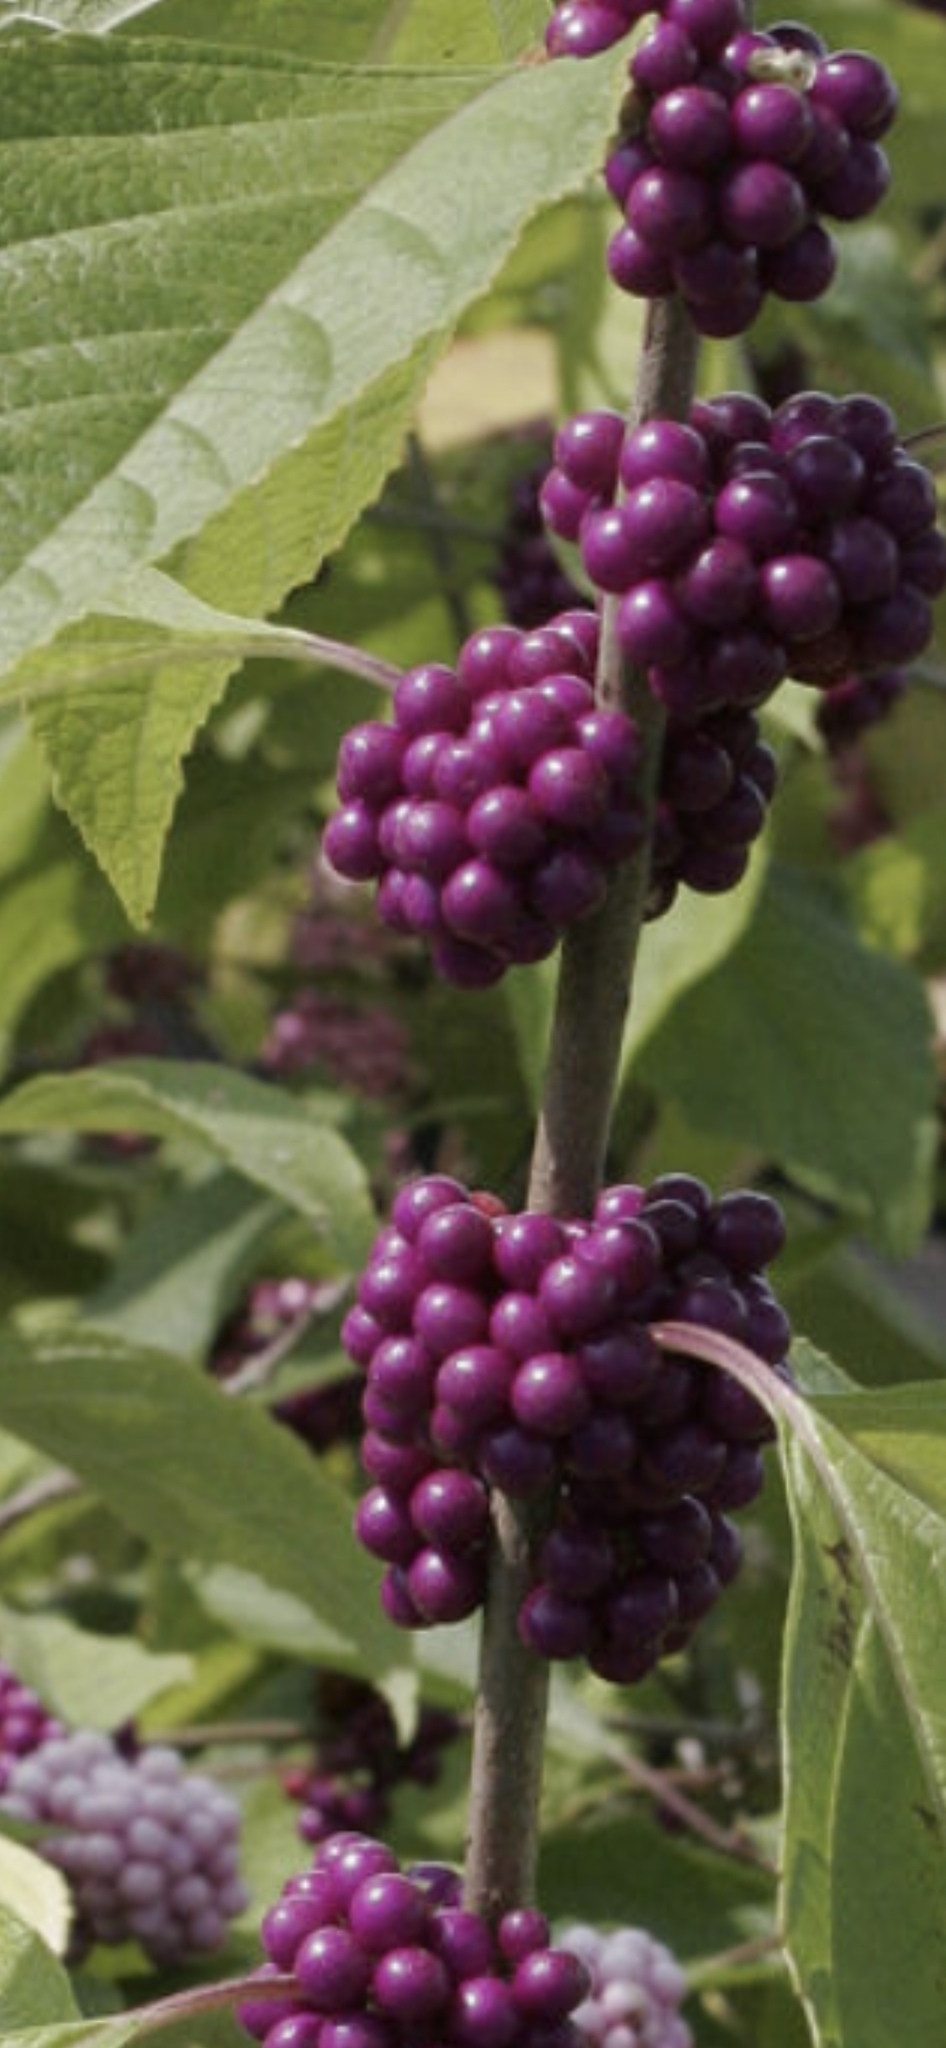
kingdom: Plantae
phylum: Tracheophyta
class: Magnoliopsida
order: Lamiales
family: Lamiaceae
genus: Callicarpa
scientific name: Callicarpa americana
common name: American beautyberry
